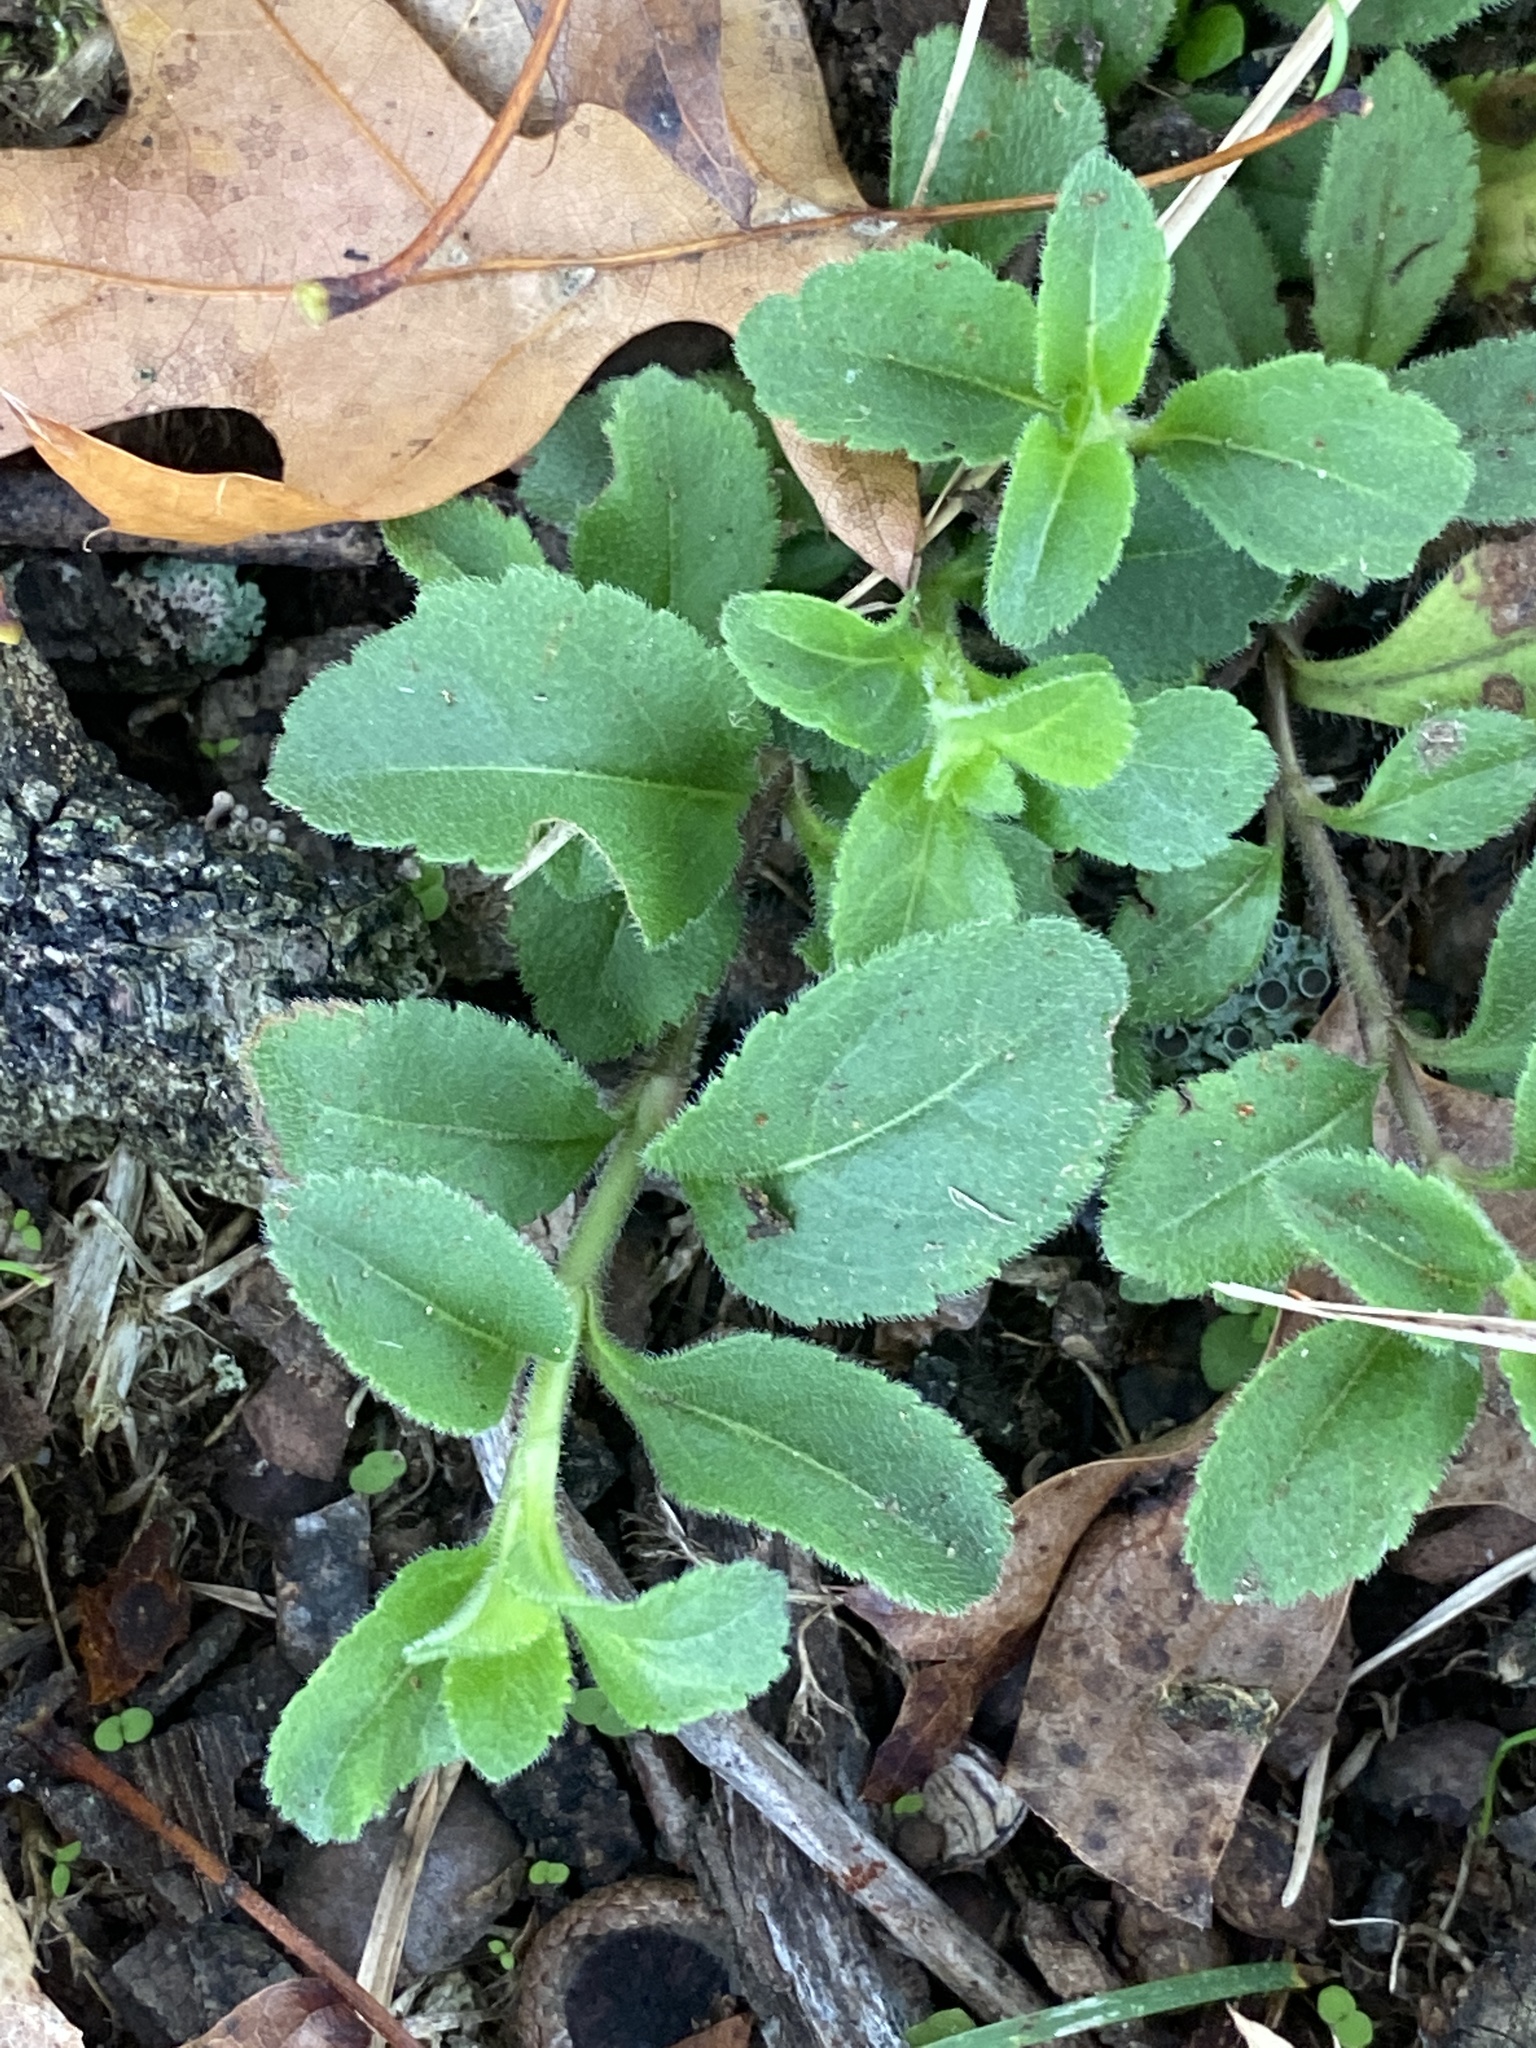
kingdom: Plantae
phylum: Tracheophyta
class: Magnoliopsida
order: Lamiales
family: Plantaginaceae
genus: Veronica
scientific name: Veronica officinalis
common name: Common speedwell
